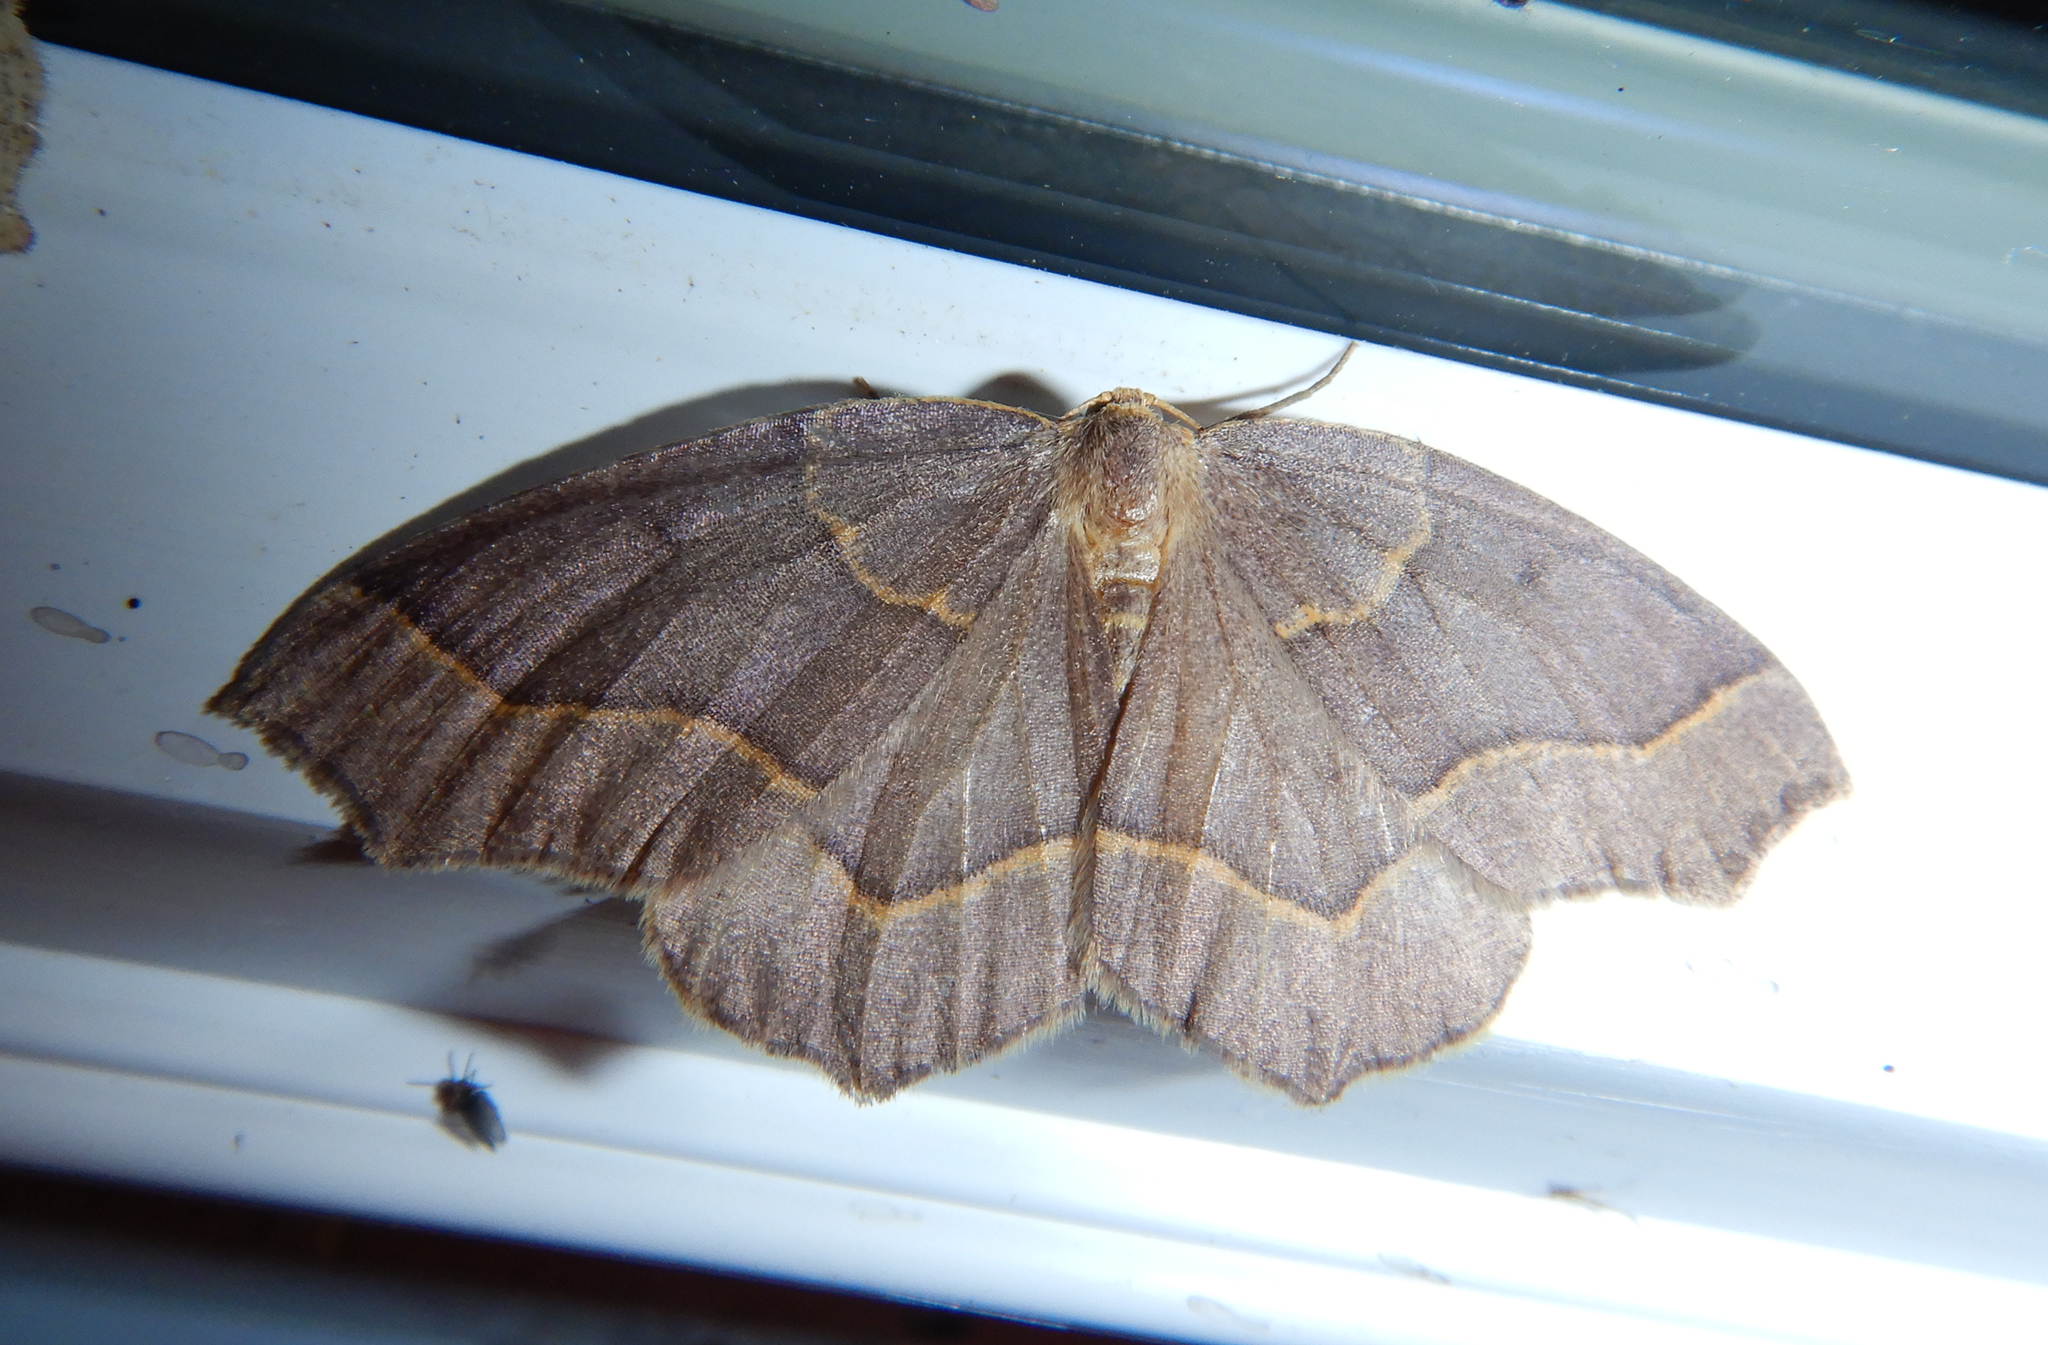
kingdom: Animalia
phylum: Arthropoda
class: Insecta
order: Lepidoptera
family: Geometridae
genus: Lambdina
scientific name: Lambdina fiscellaria
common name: Hemlock looper
